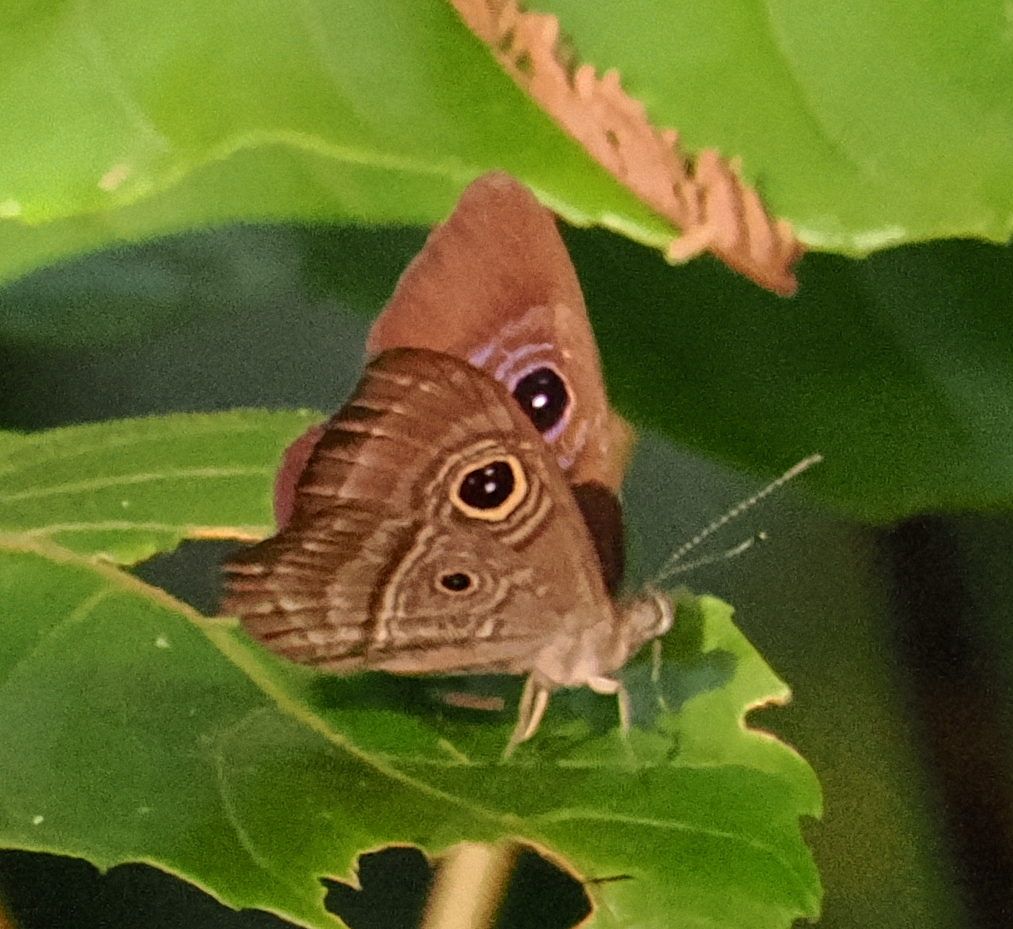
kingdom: Animalia
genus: Mesosemia
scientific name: Mesosemia
